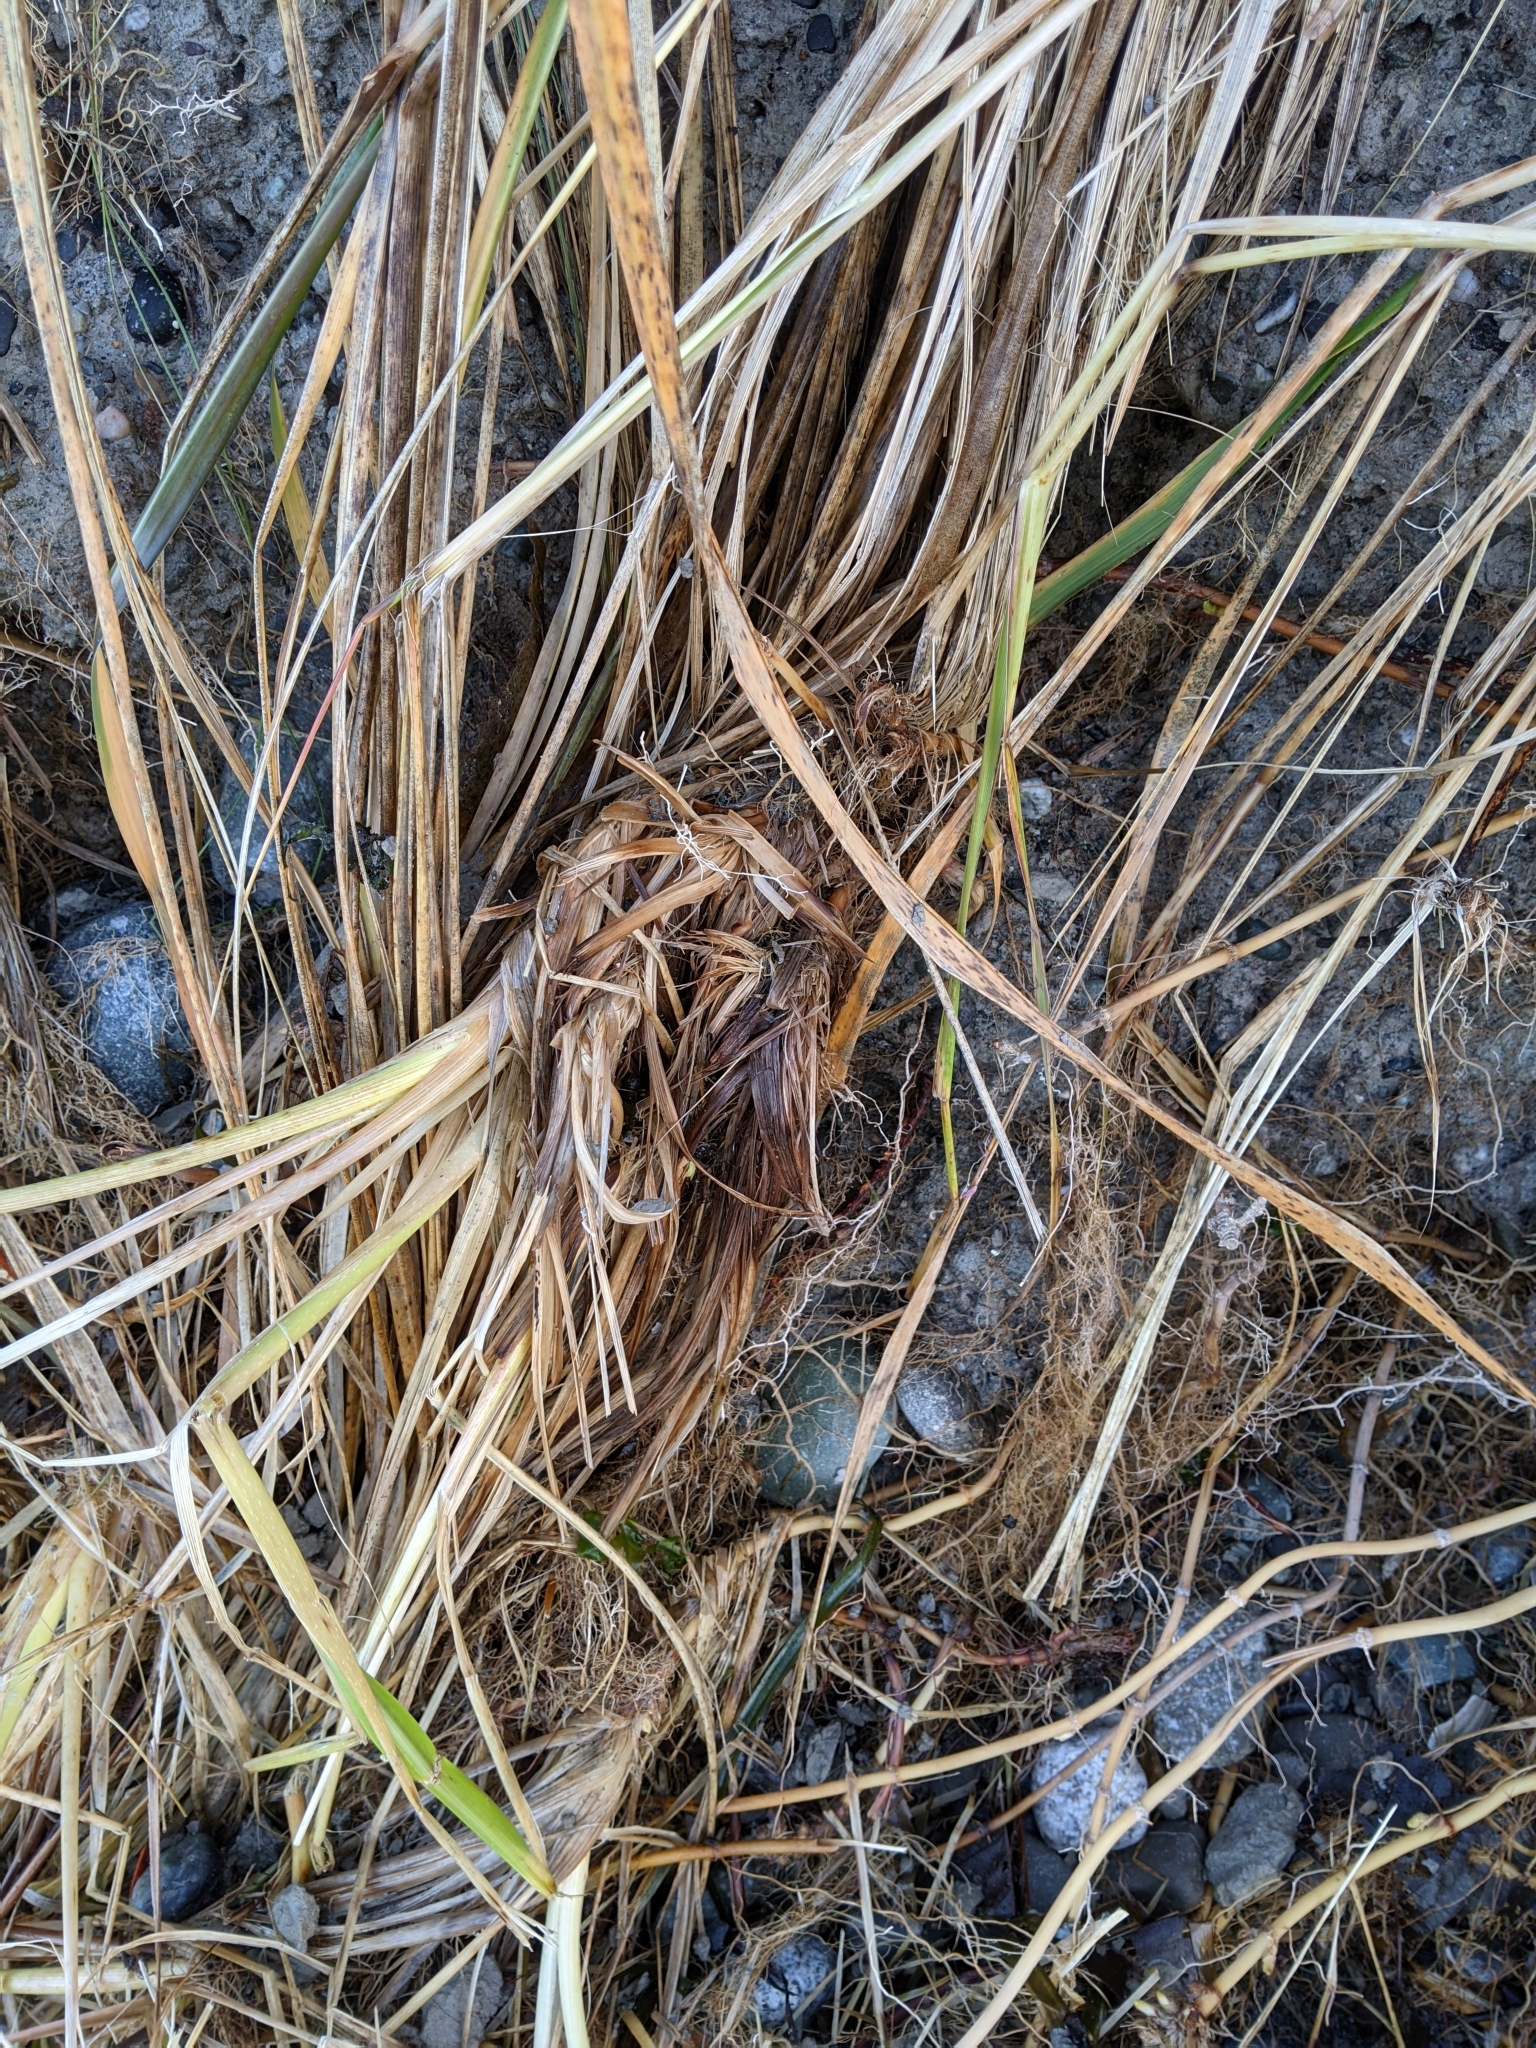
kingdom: Plantae
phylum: Tracheophyta
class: Liliopsida
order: Poales
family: Poaceae
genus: Leymus
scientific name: Leymus mollis
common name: American dune grass
